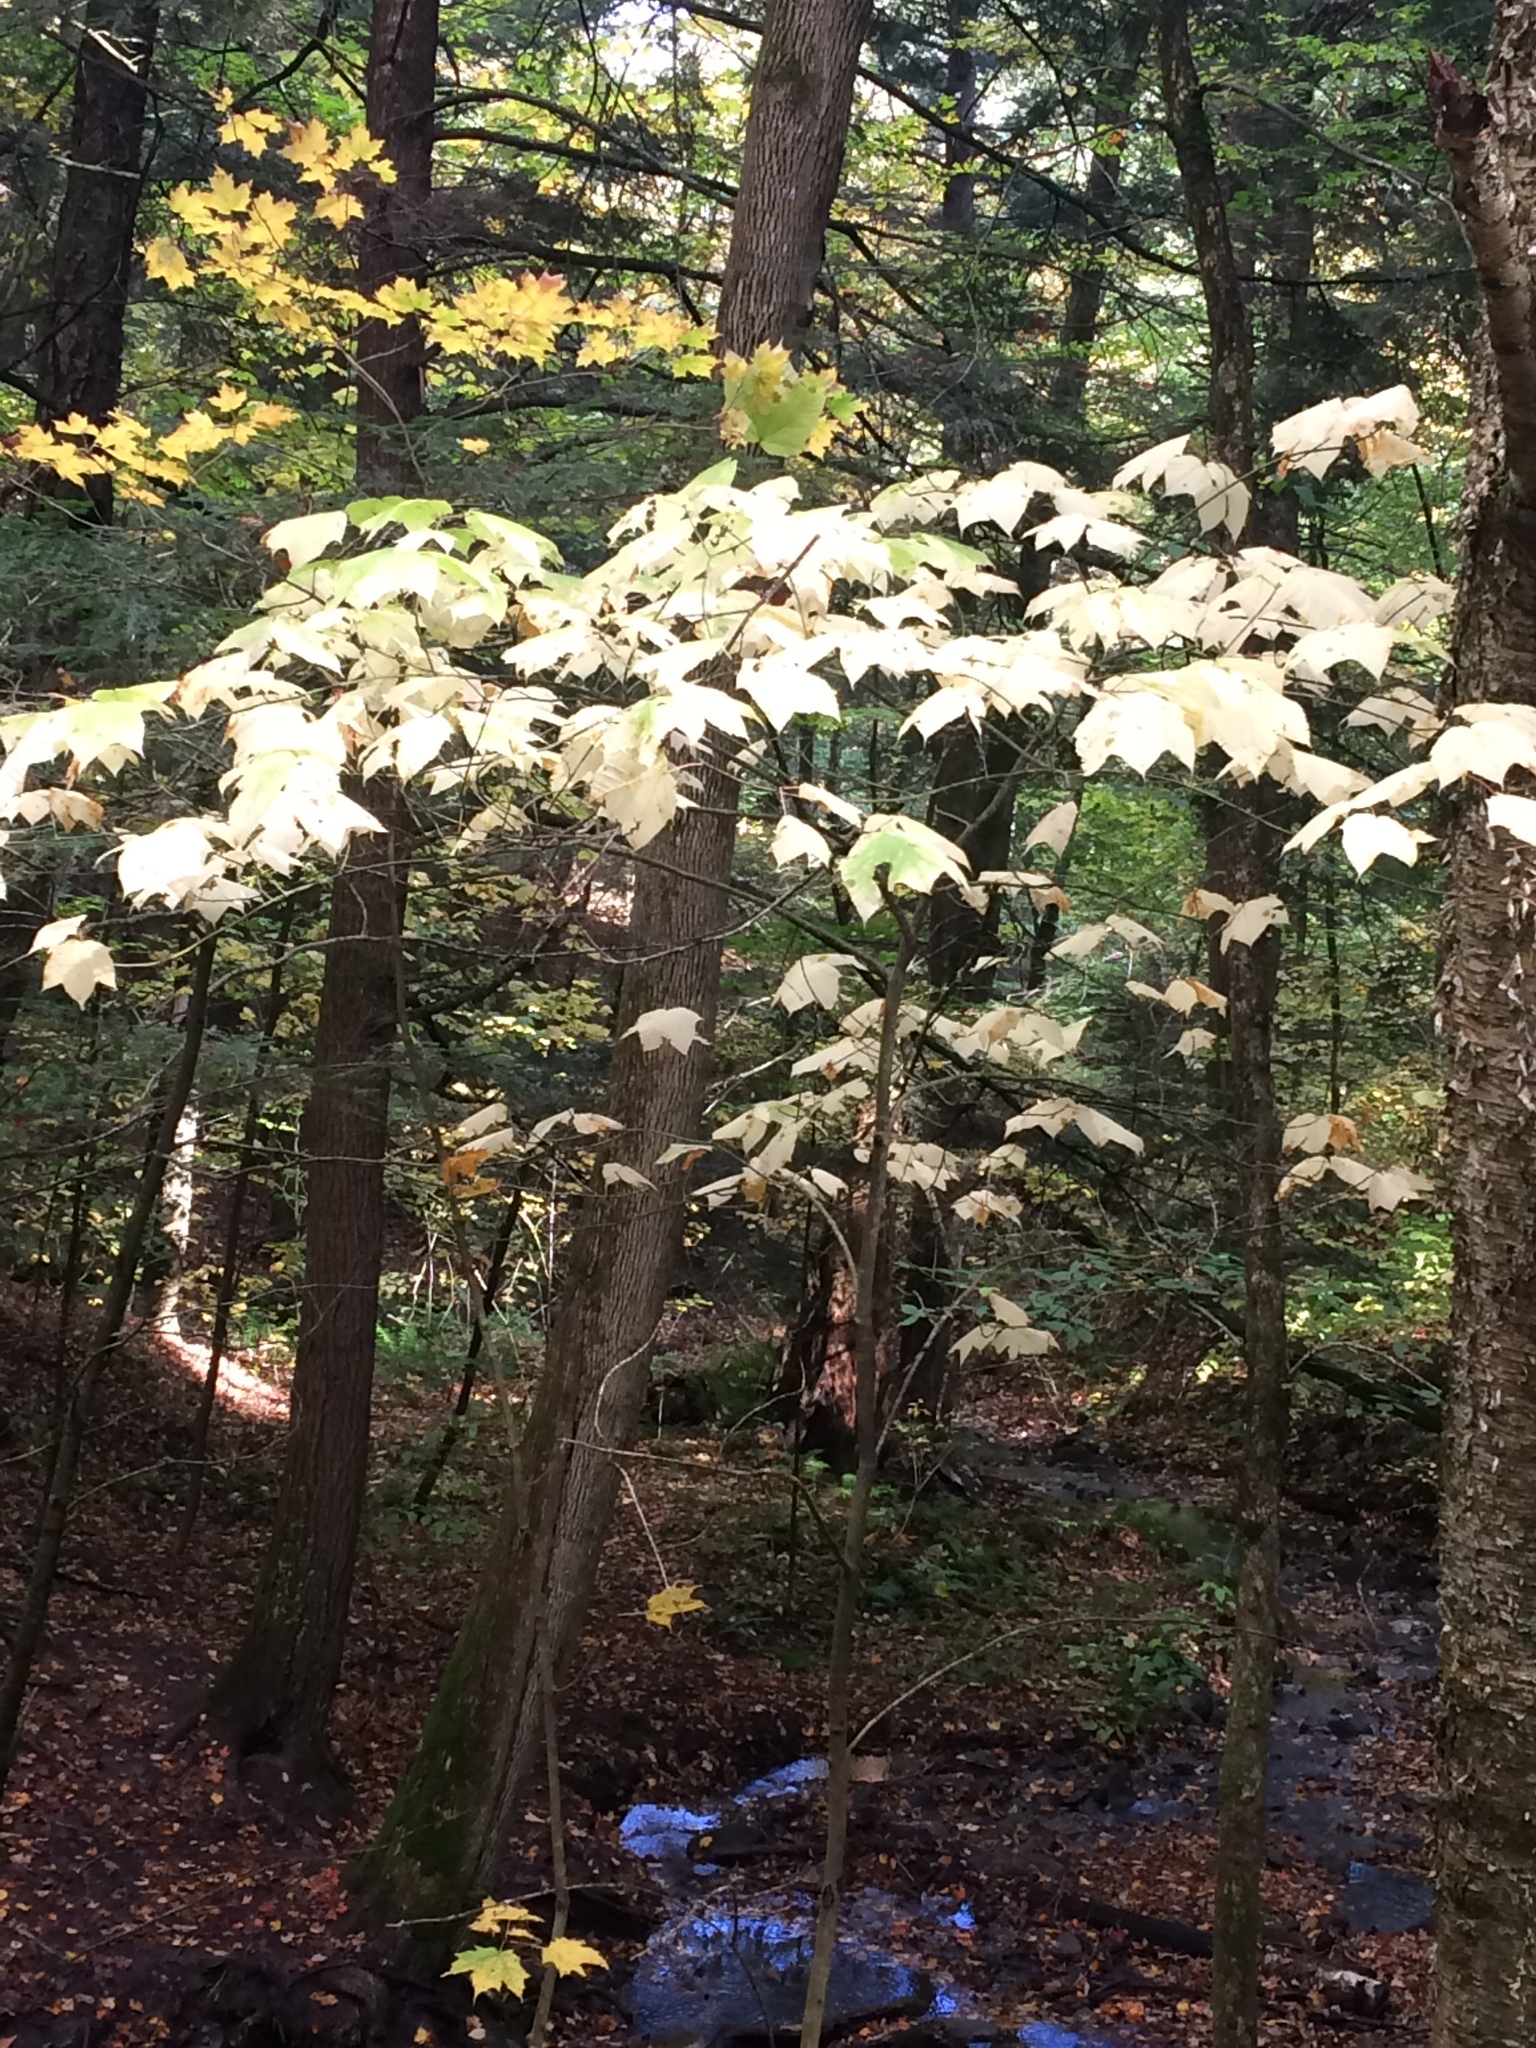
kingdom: Plantae
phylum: Tracheophyta
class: Magnoliopsida
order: Sapindales
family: Sapindaceae
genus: Acer
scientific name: Acer pensylvanicum
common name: Moosewood
